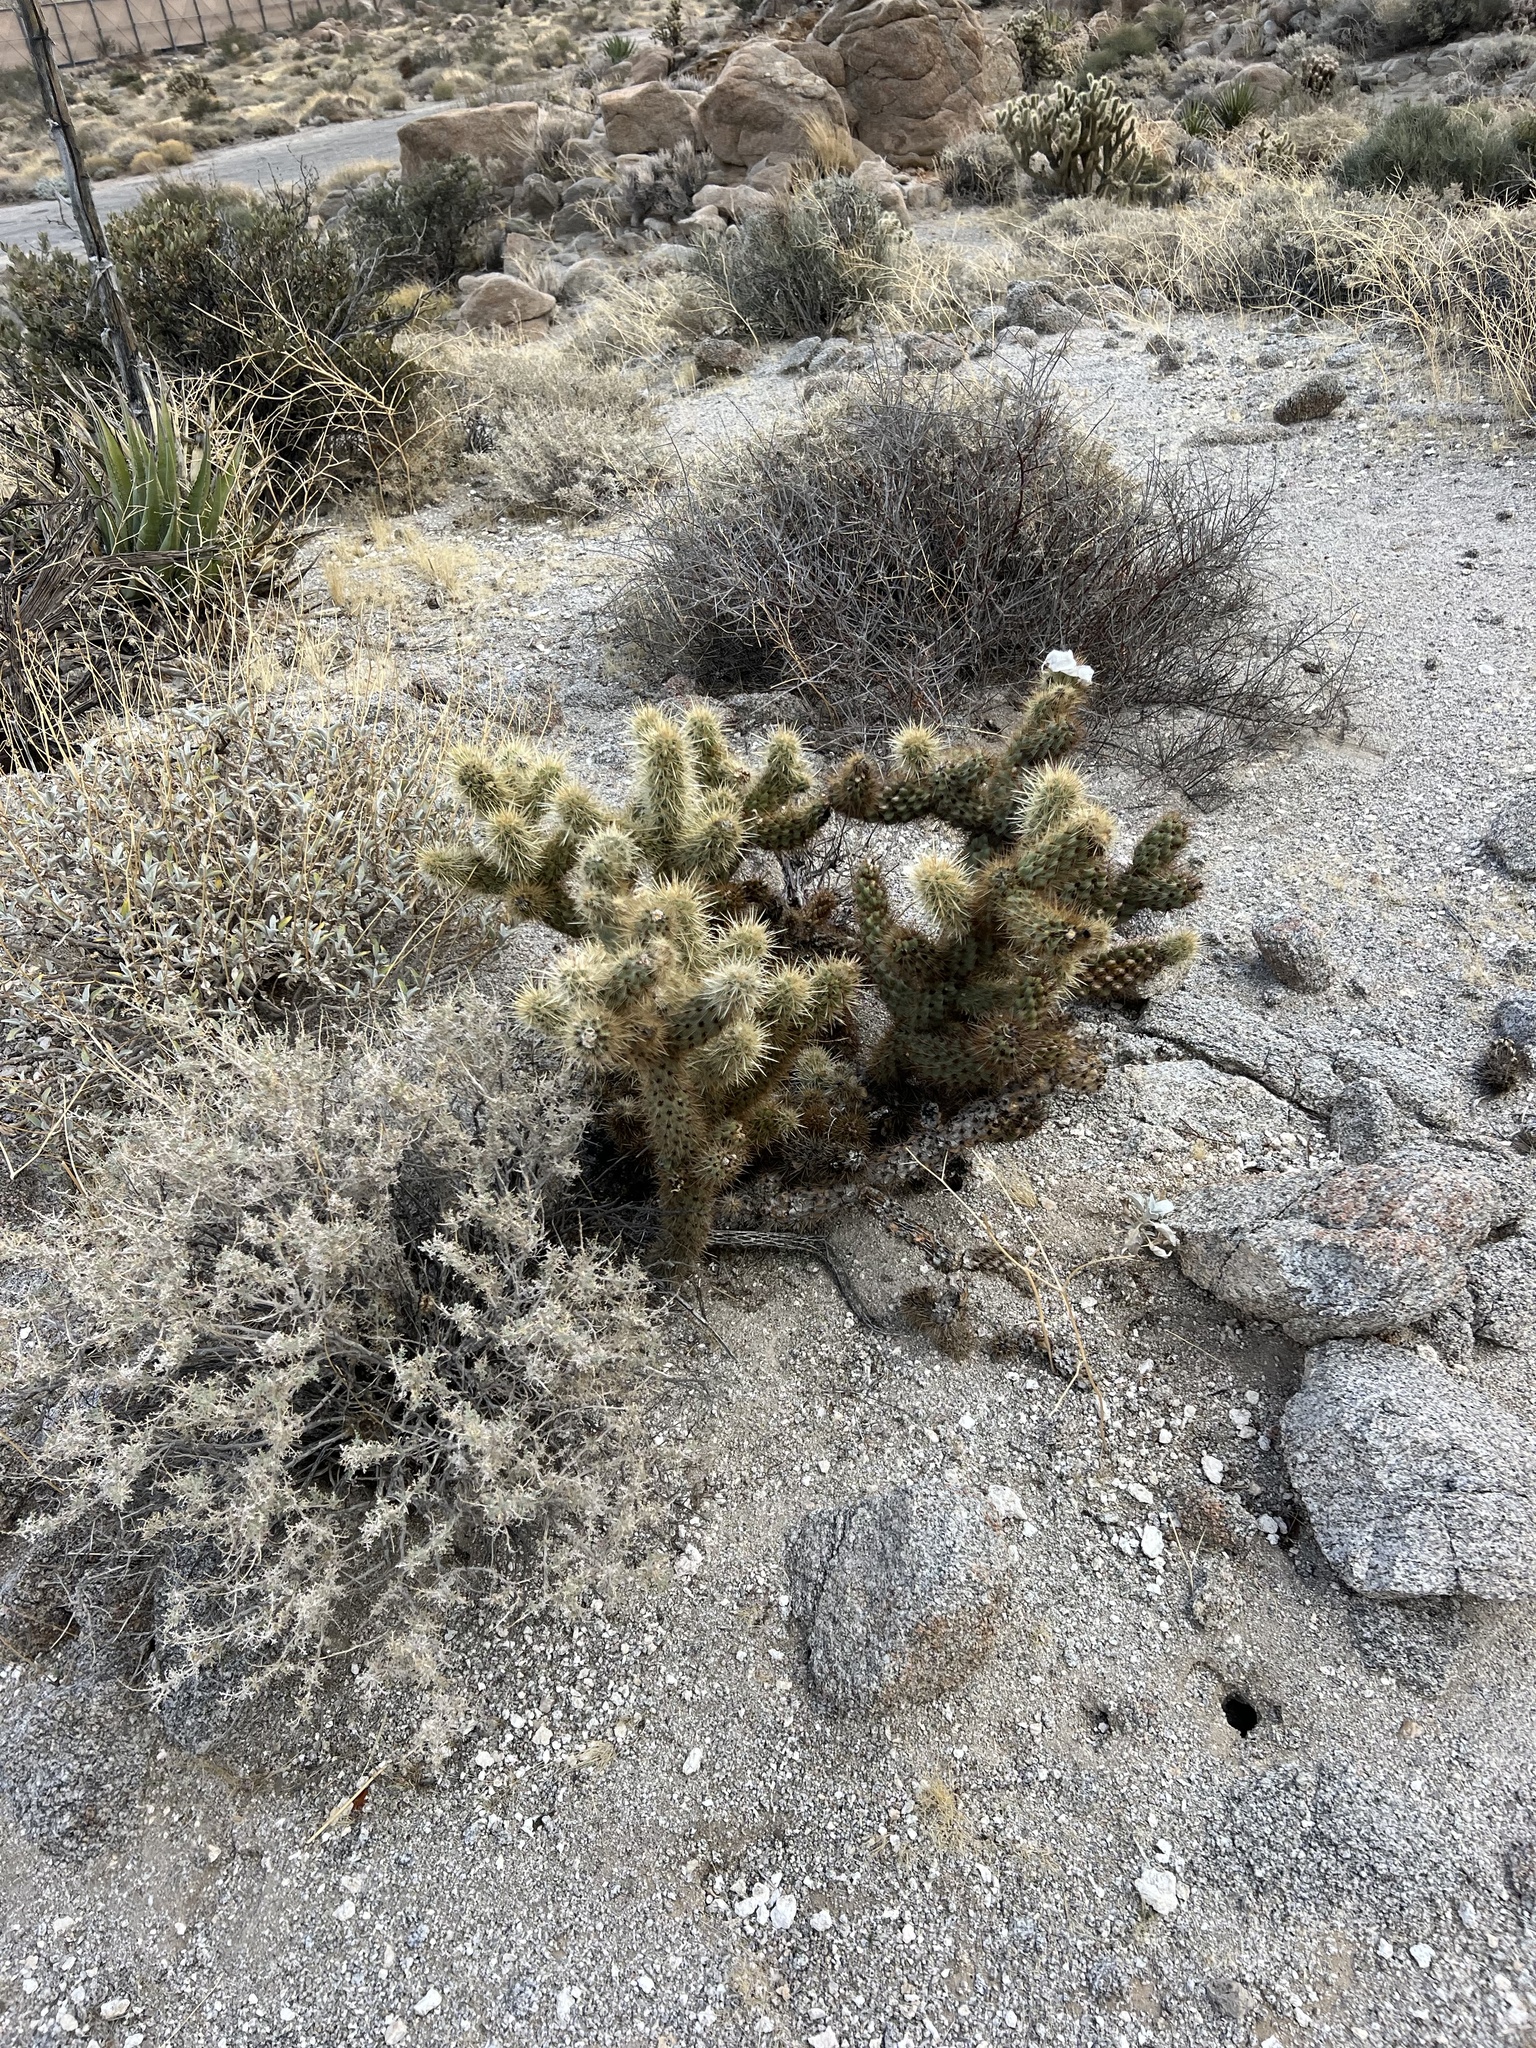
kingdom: Plantae
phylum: Tracheophyta
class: Magnoliopsida
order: Caryophyllales
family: Cactaceae
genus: Cylindropuntia
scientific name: Cylindropuntia ganderi
